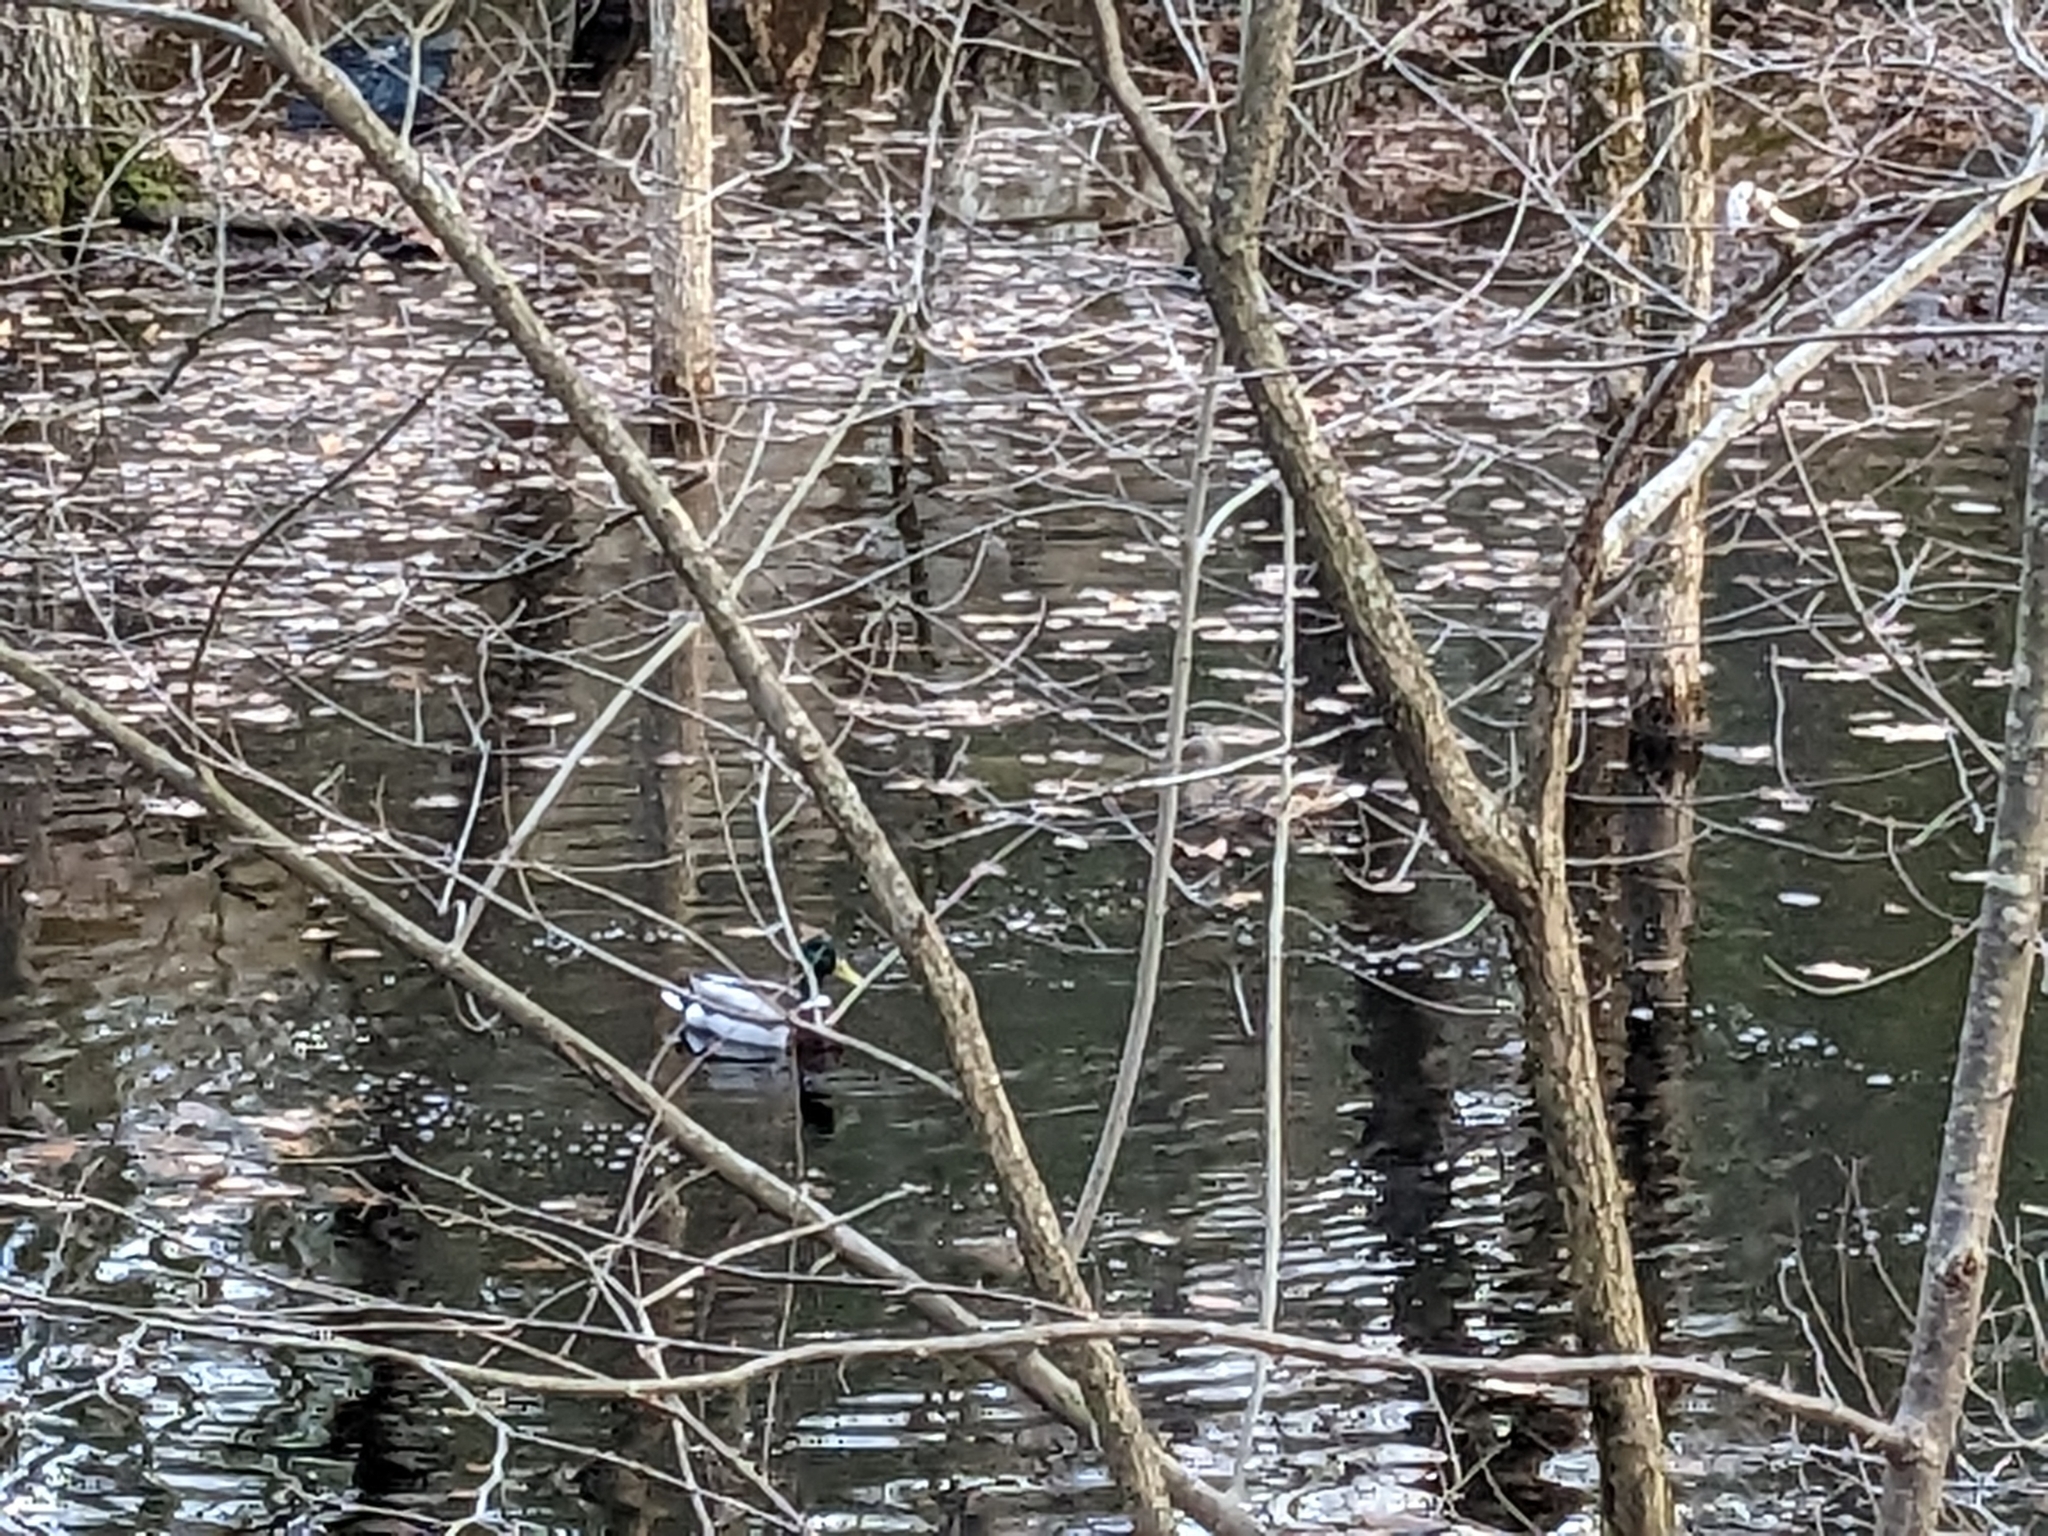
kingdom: Animalia
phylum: Chordata
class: Aves
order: Anseriformes
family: Anatidae
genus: Anas
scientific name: Anas platyrhynchos
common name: Mallard
